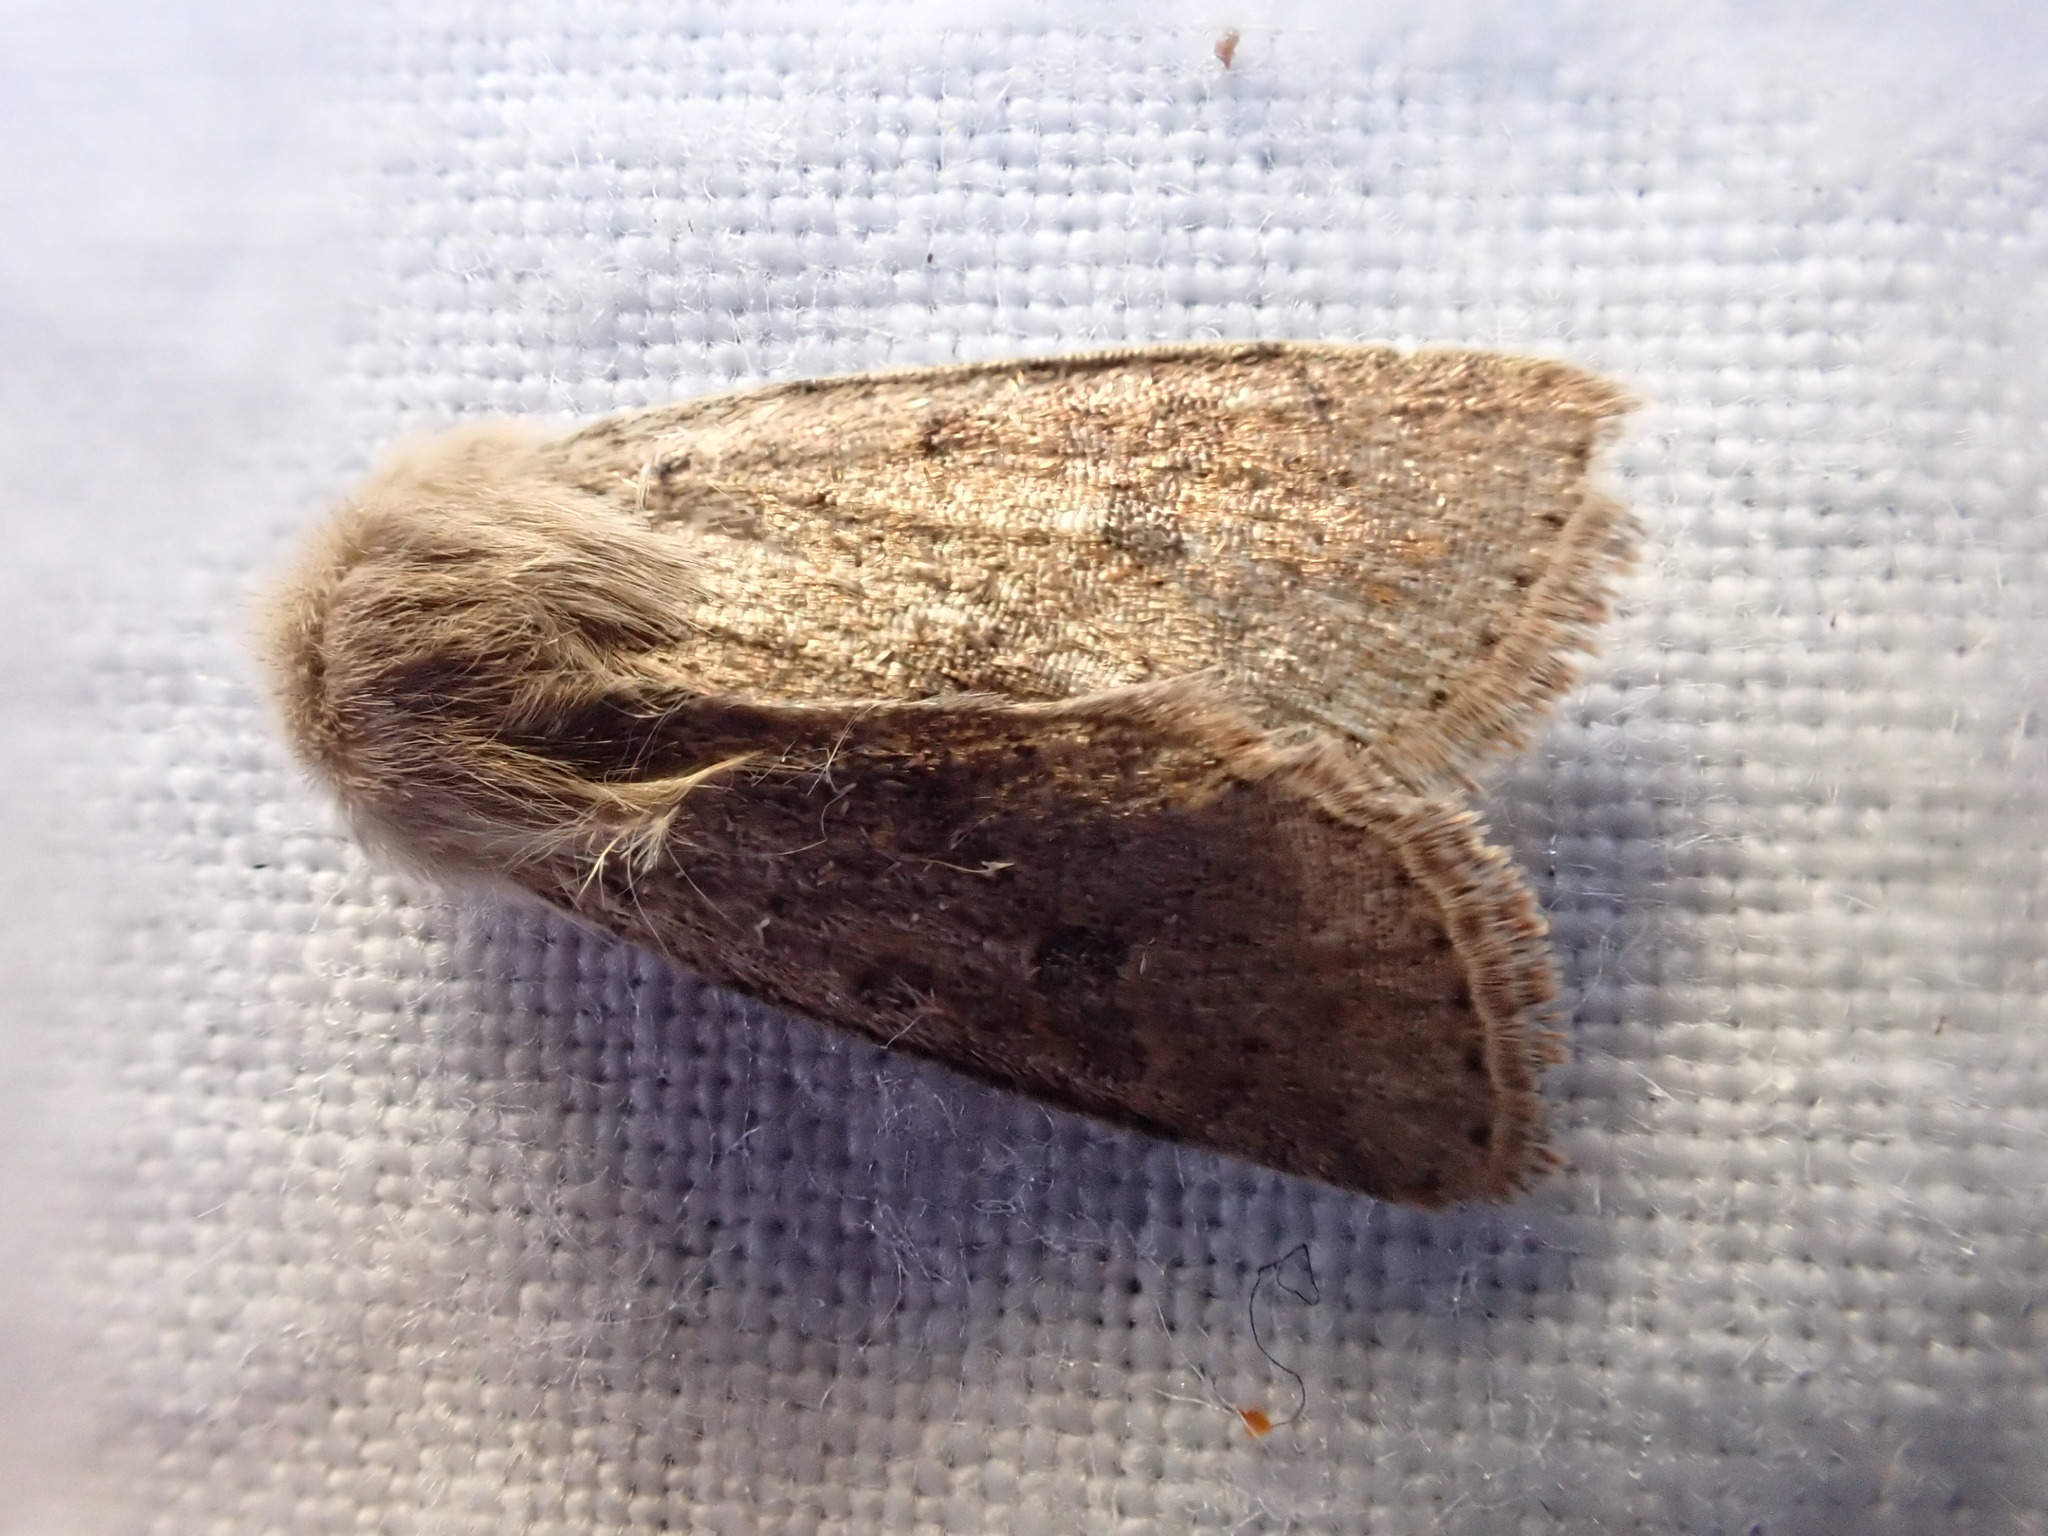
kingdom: Animalia
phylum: Arthropoda
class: Insecta
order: Lepidoptera
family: Noctuidae
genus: Orthosia
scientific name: Orthosia cruda
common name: Small quaker
